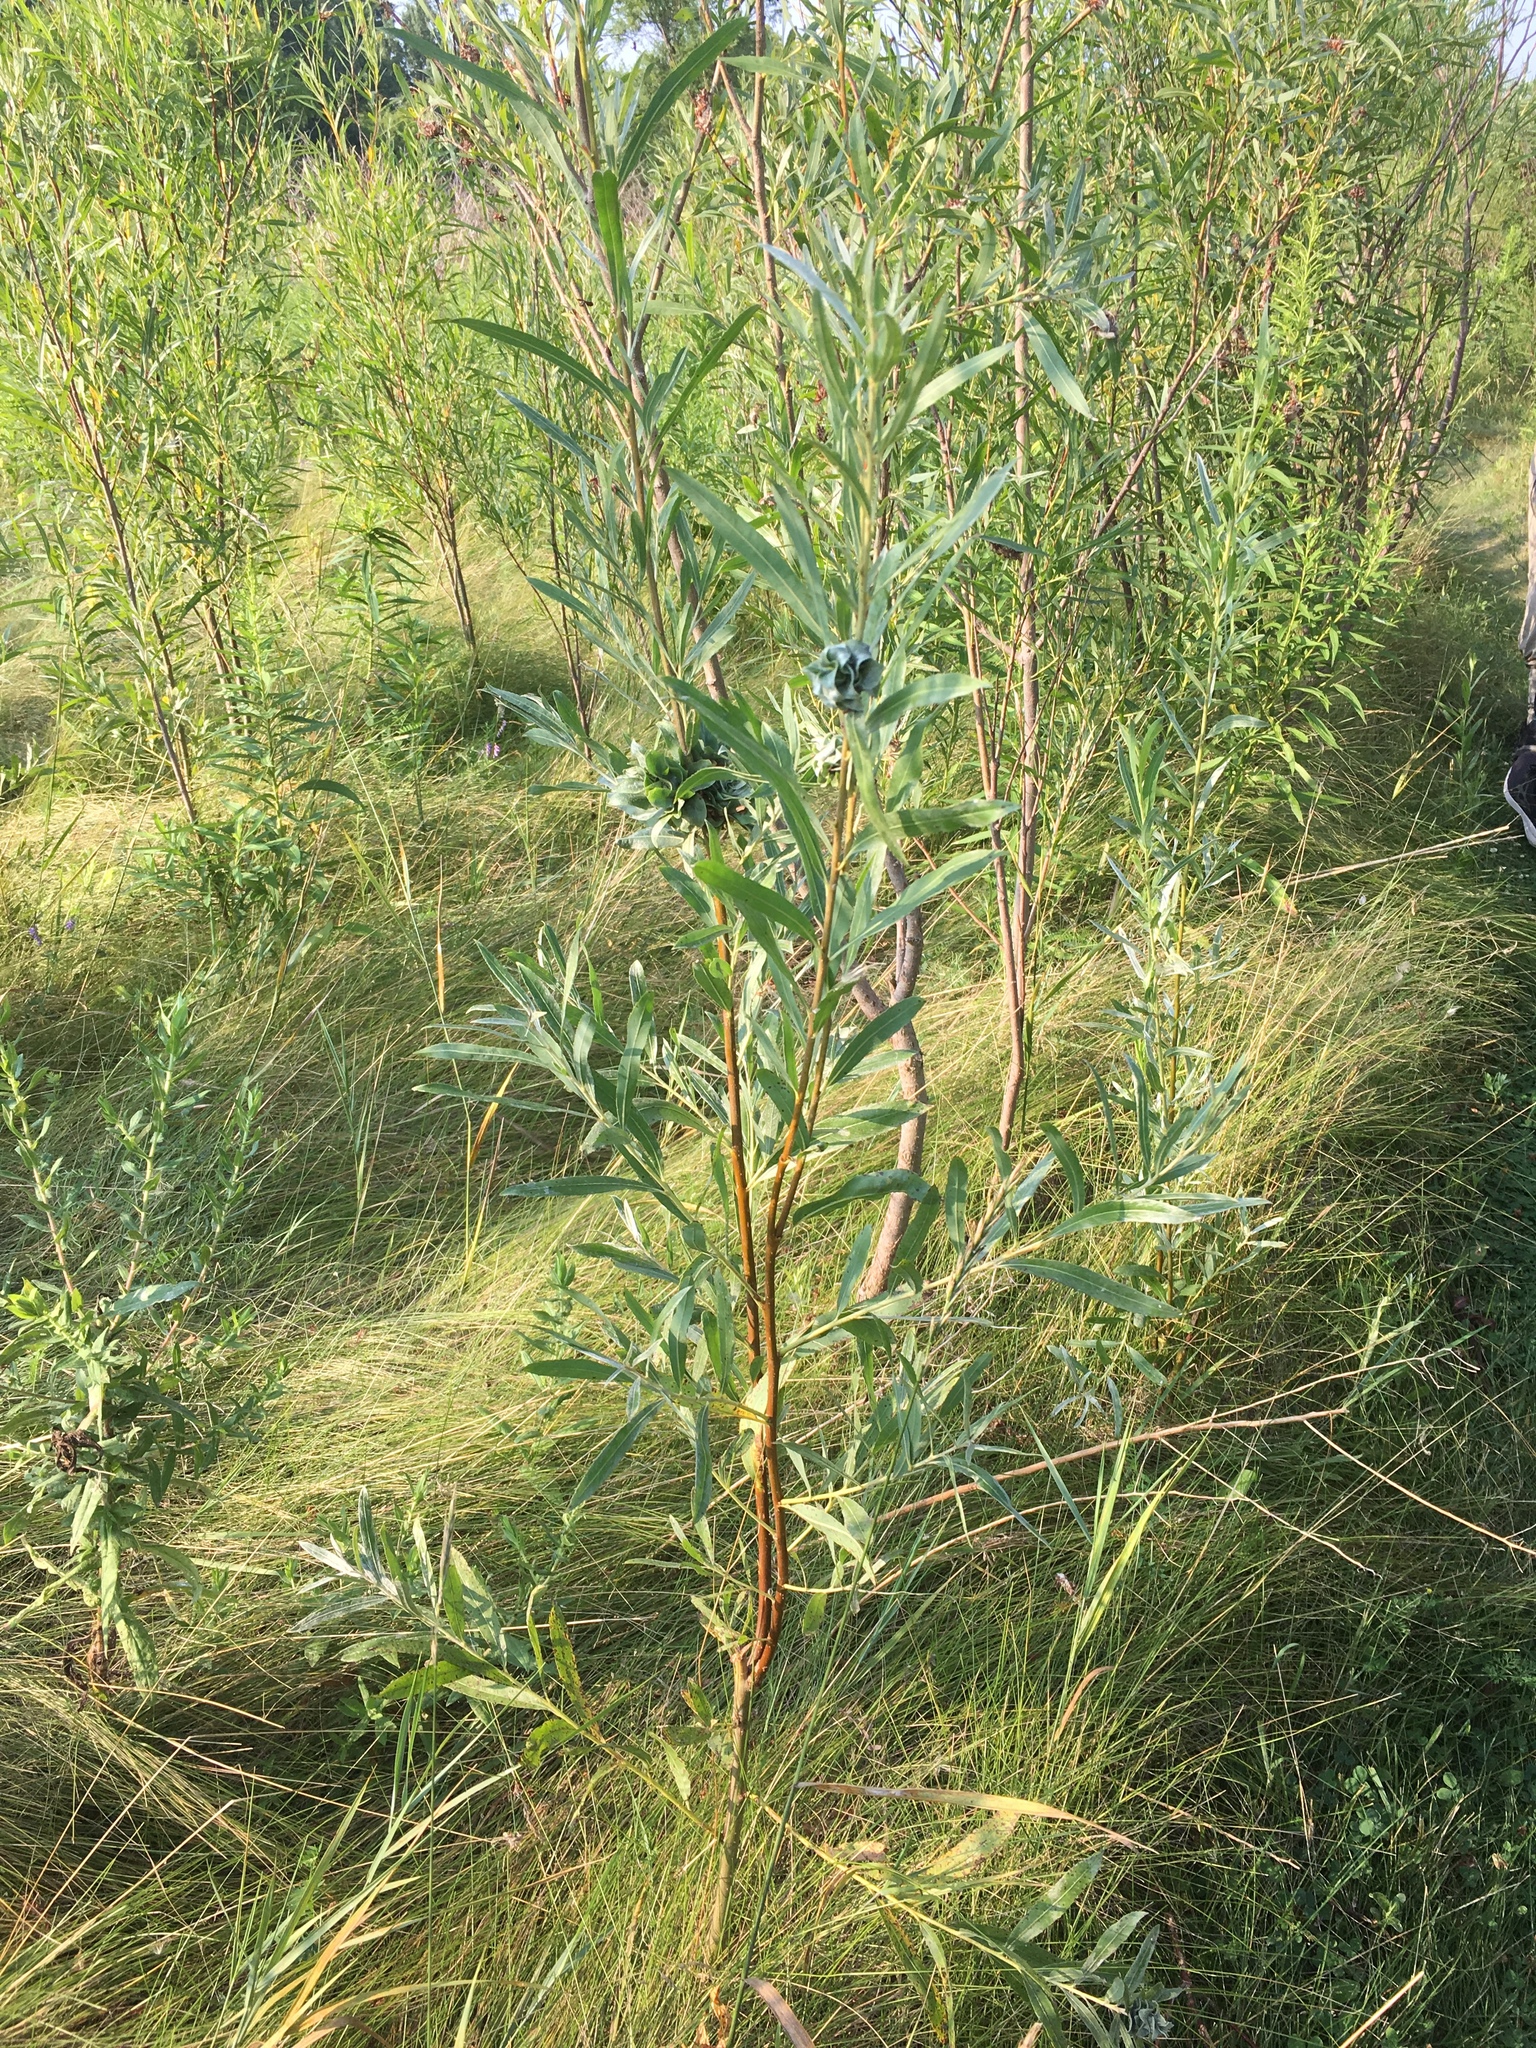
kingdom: Plantae
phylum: Tracheophyta
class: Magnoliopsida
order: Malpighiales
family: Salicaceae
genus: Salix
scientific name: Salix interior
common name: Sandbar willow
